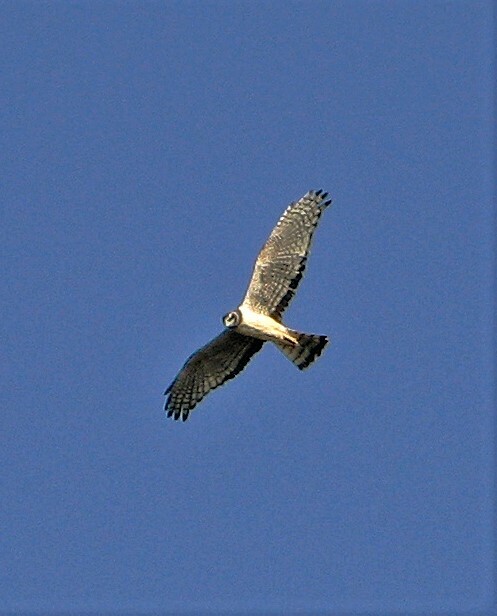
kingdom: Animalia
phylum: Chordata
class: Aves
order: Accipitriformes
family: Accipitridae
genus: Circus
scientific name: Circus buffoni
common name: Long-winged harrier
